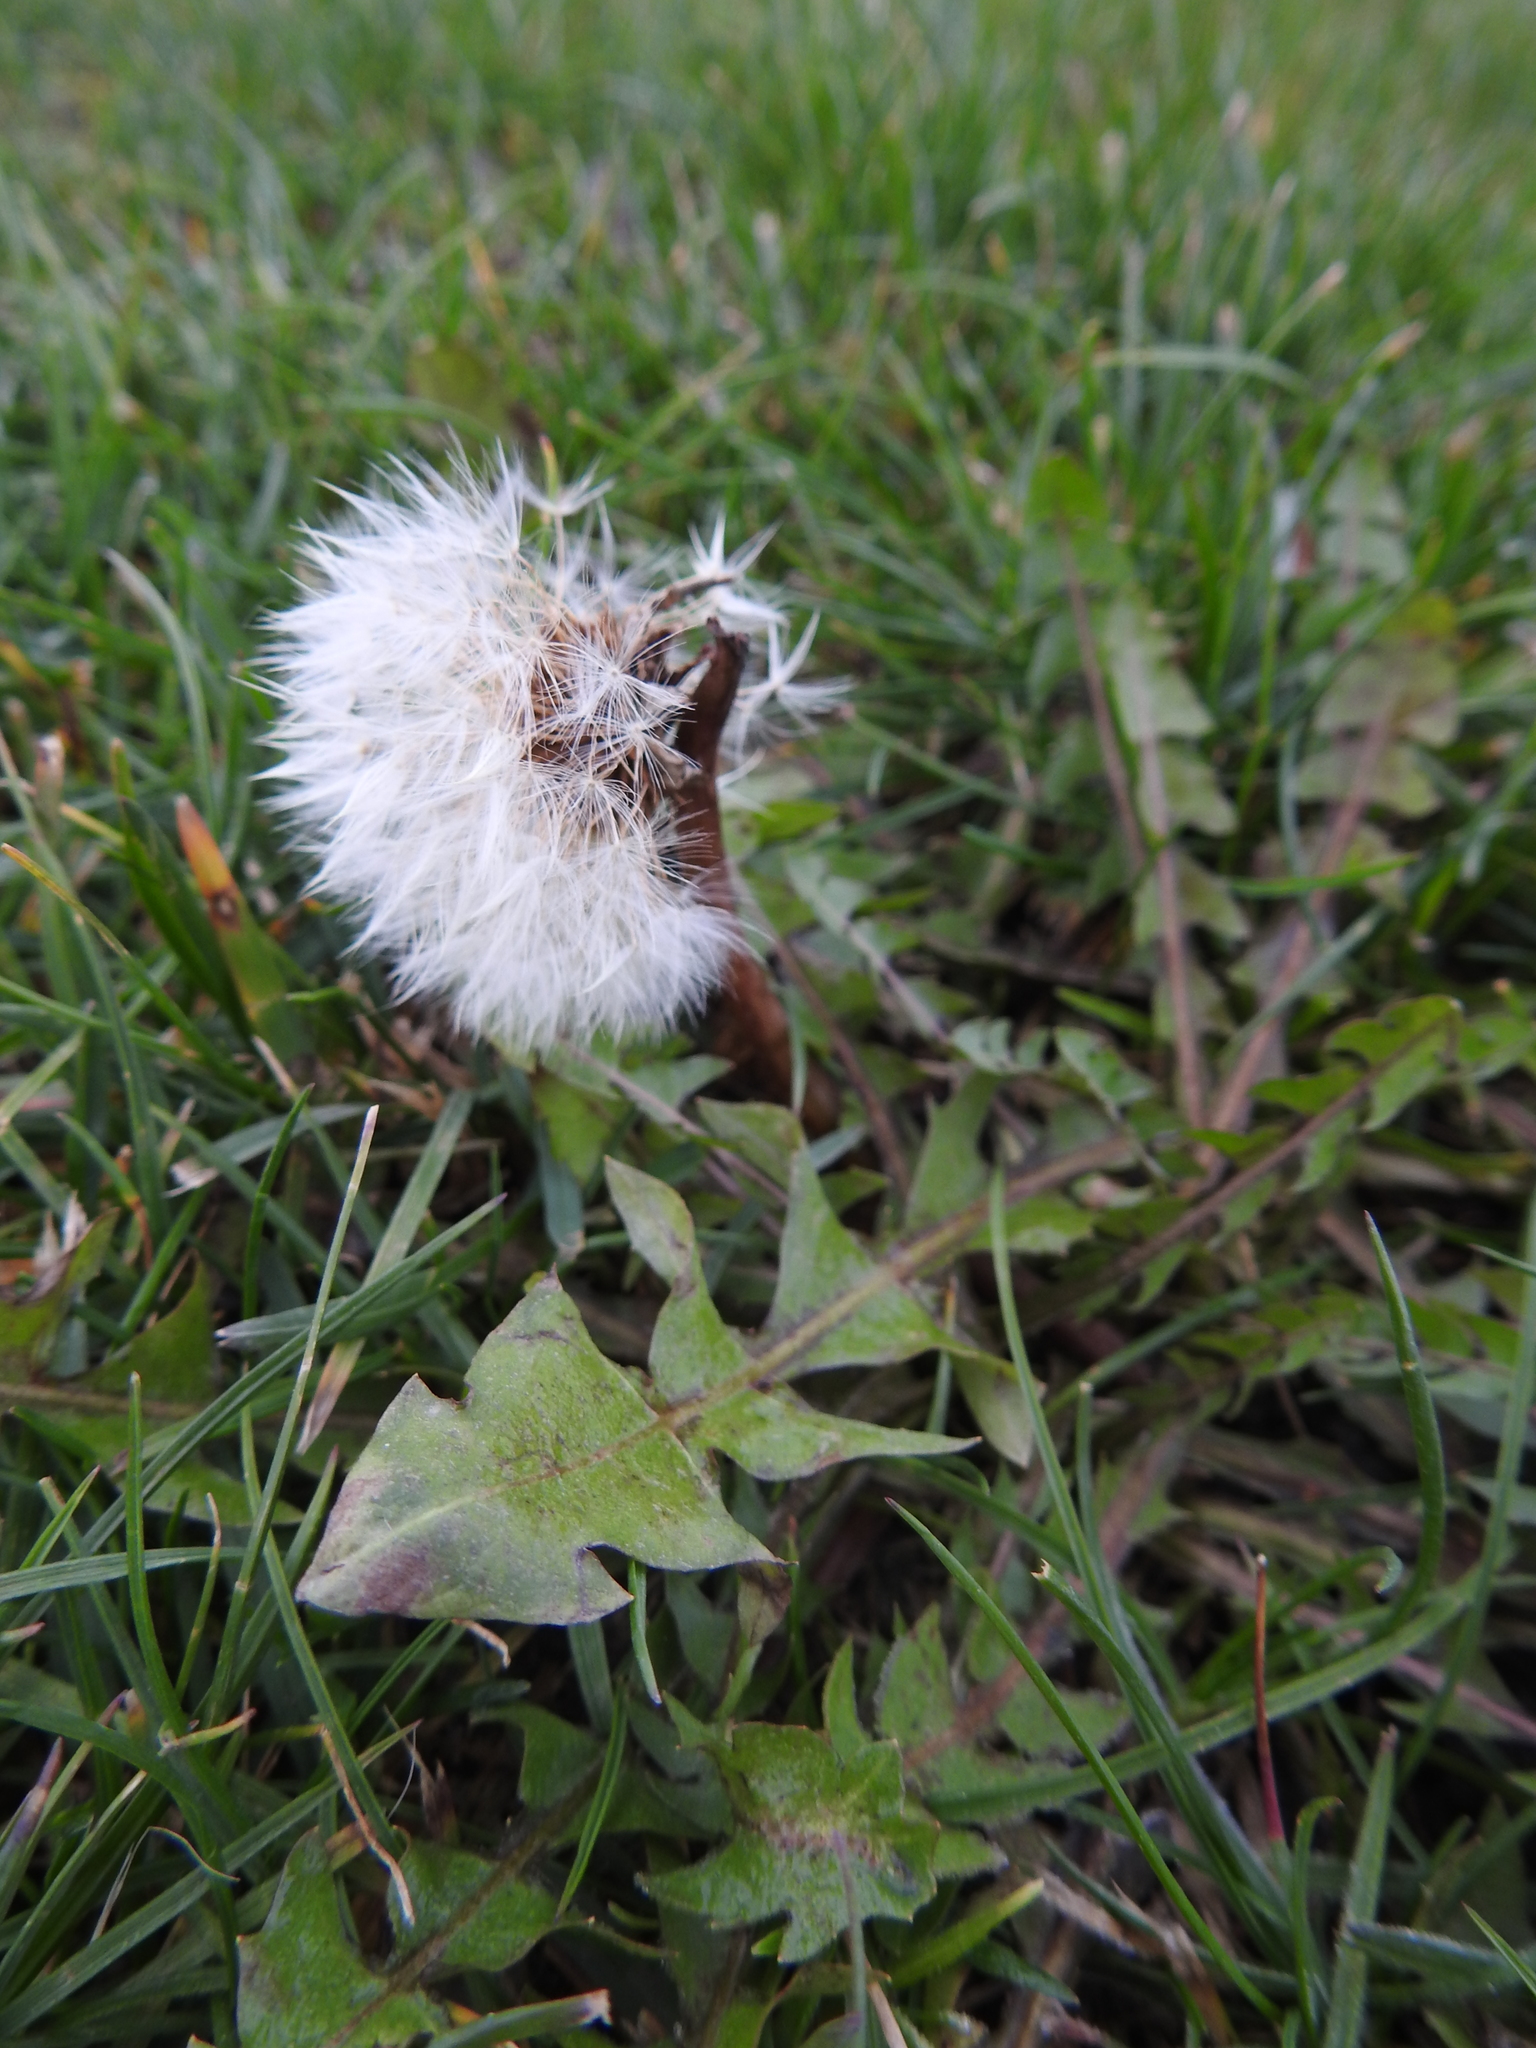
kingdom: Plantae
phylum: Tracheophyta
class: Magnoliopsida
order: Asterales
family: Asteraceae
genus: Taraxacum
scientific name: Taraxacum officinale
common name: Common dandelion
